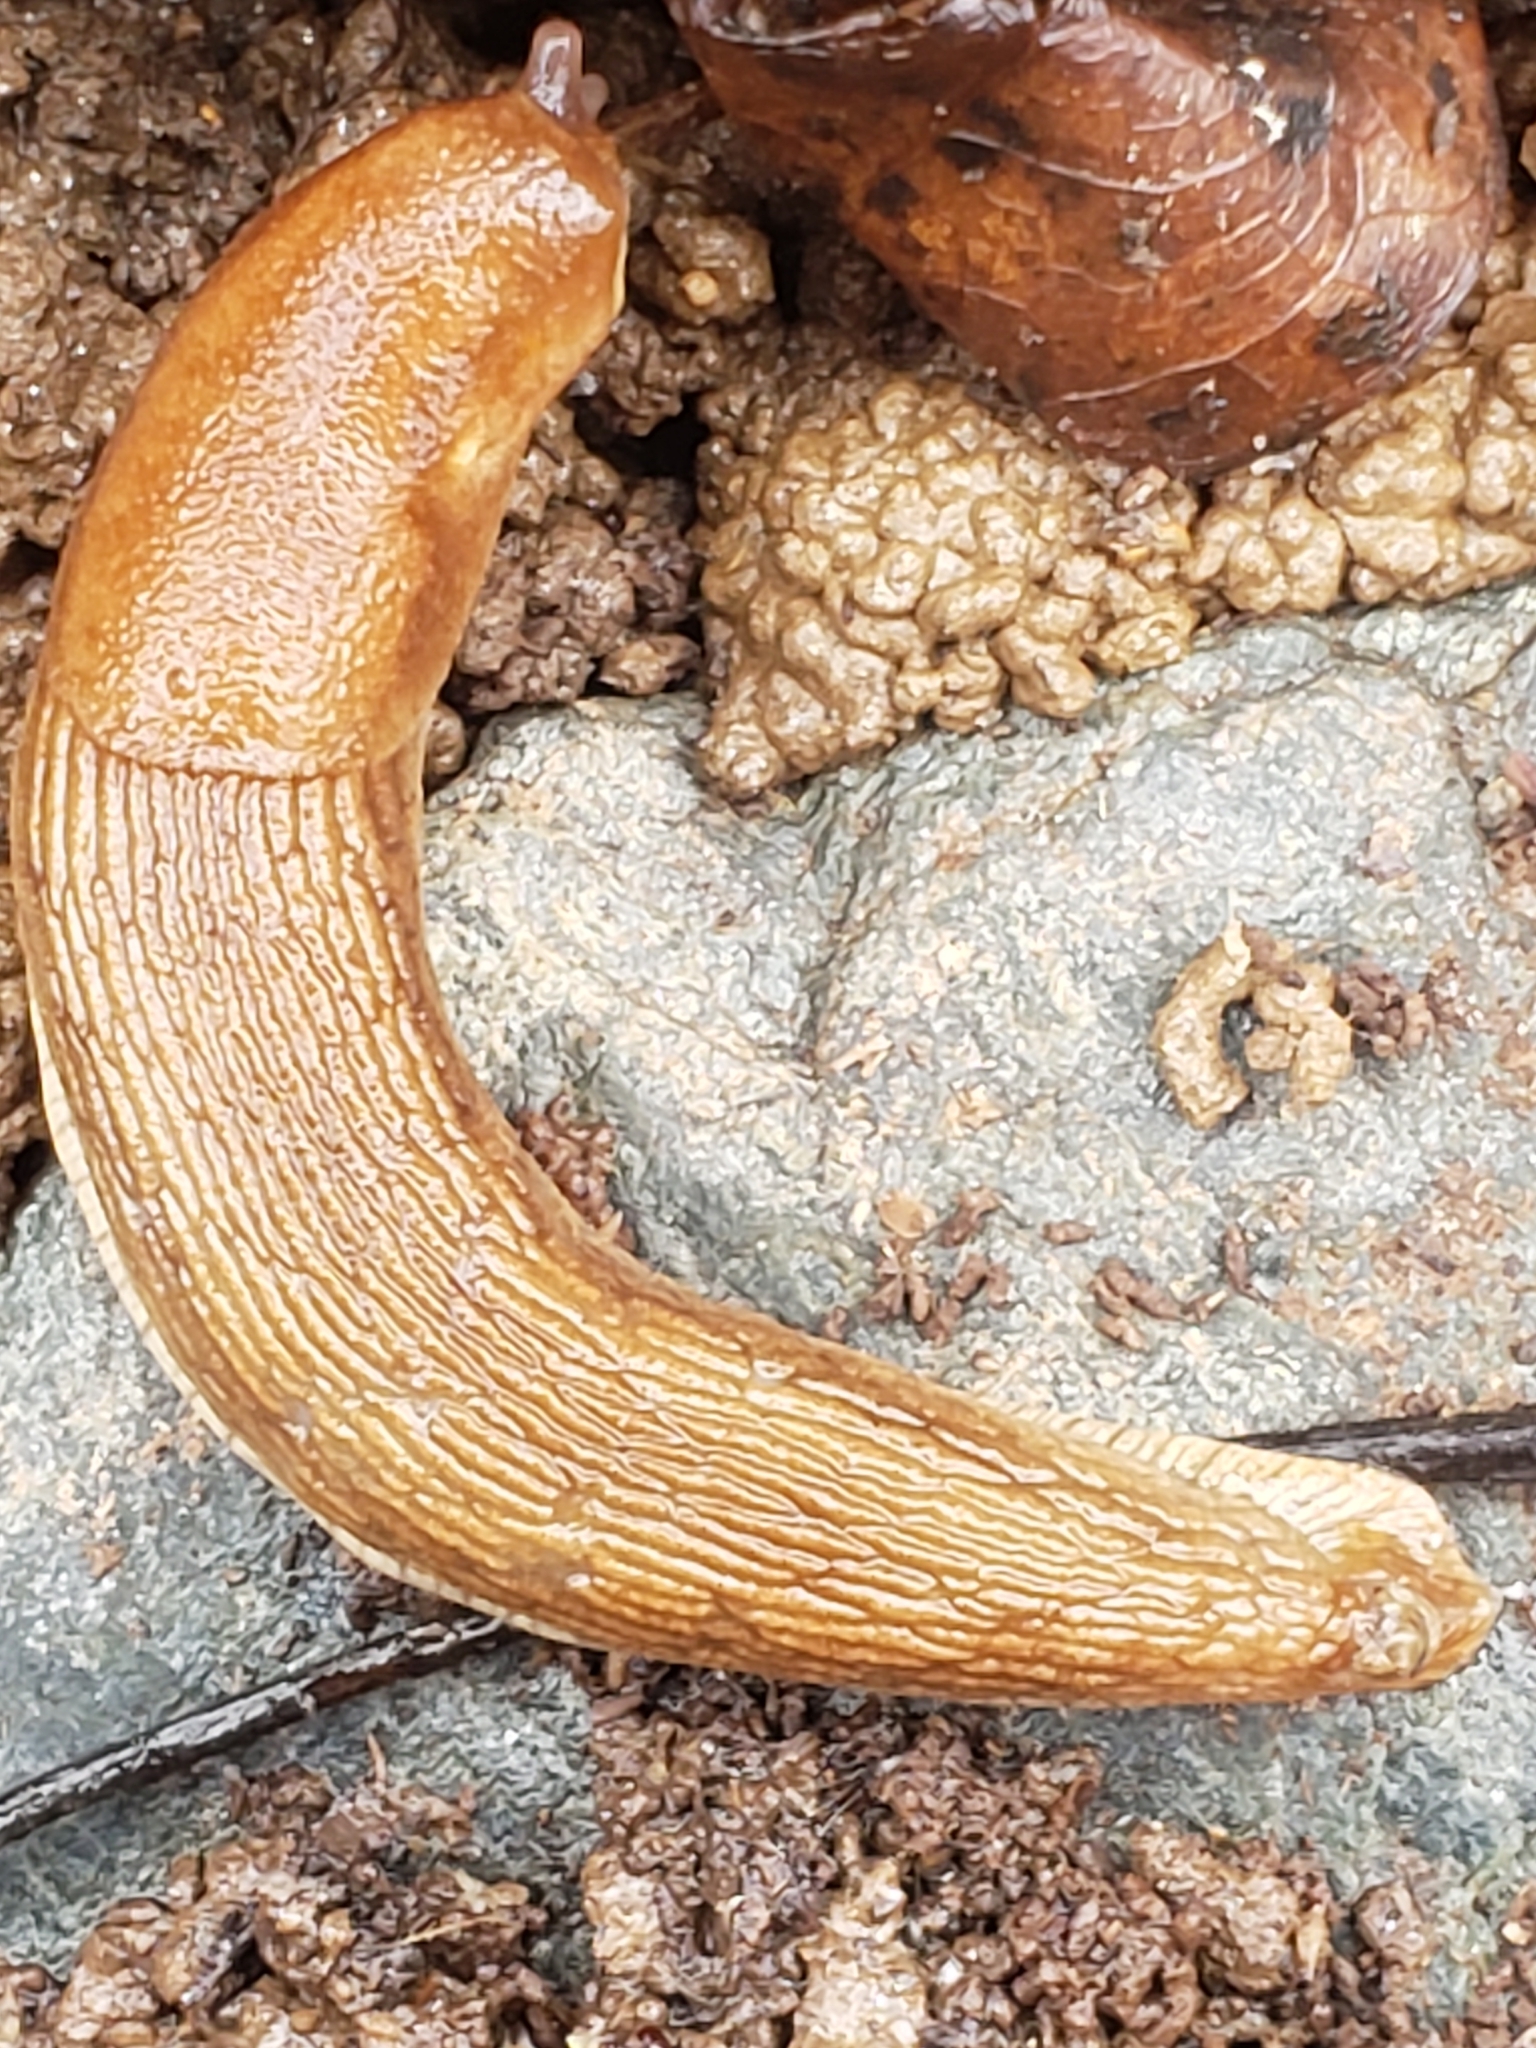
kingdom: Animalia
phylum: Mollusca
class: Gastropoda
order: Stylommatophora
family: Arionidae
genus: Arion
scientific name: Arion subfuscus
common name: Dusky arion
